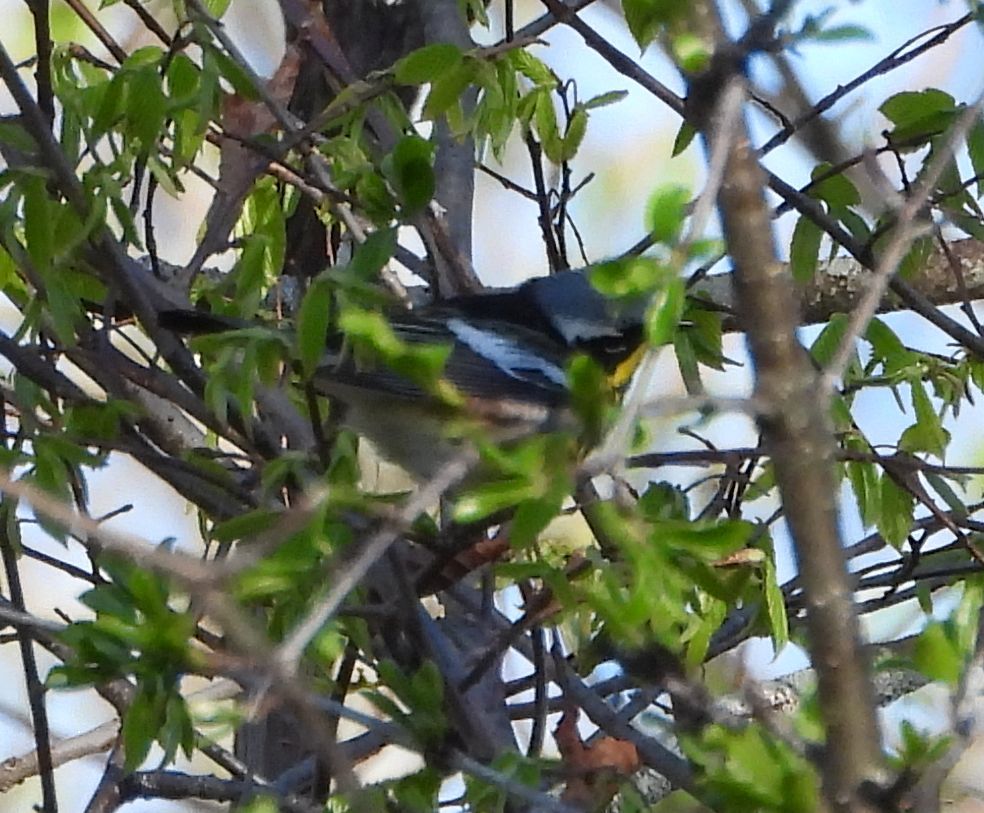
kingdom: Animalia
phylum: Chordata
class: Aves
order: Passeriformes
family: Parulidae
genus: Setophaga
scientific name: Setophaga magnolia
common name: Magnolia warbler
